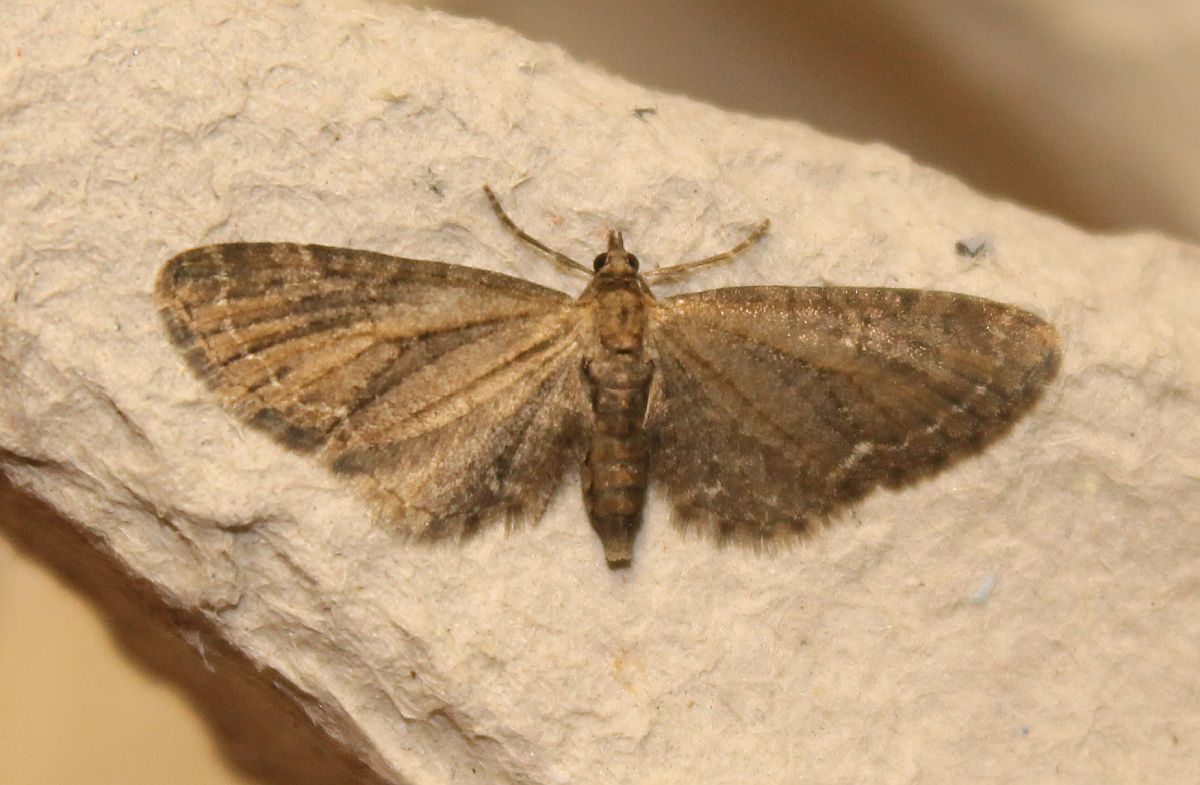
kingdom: Animalia
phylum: Arthropoda
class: Insecta
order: Lepidoptera
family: Geometridae
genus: Eupithecia
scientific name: Eupithecia vulgata
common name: Common pug
